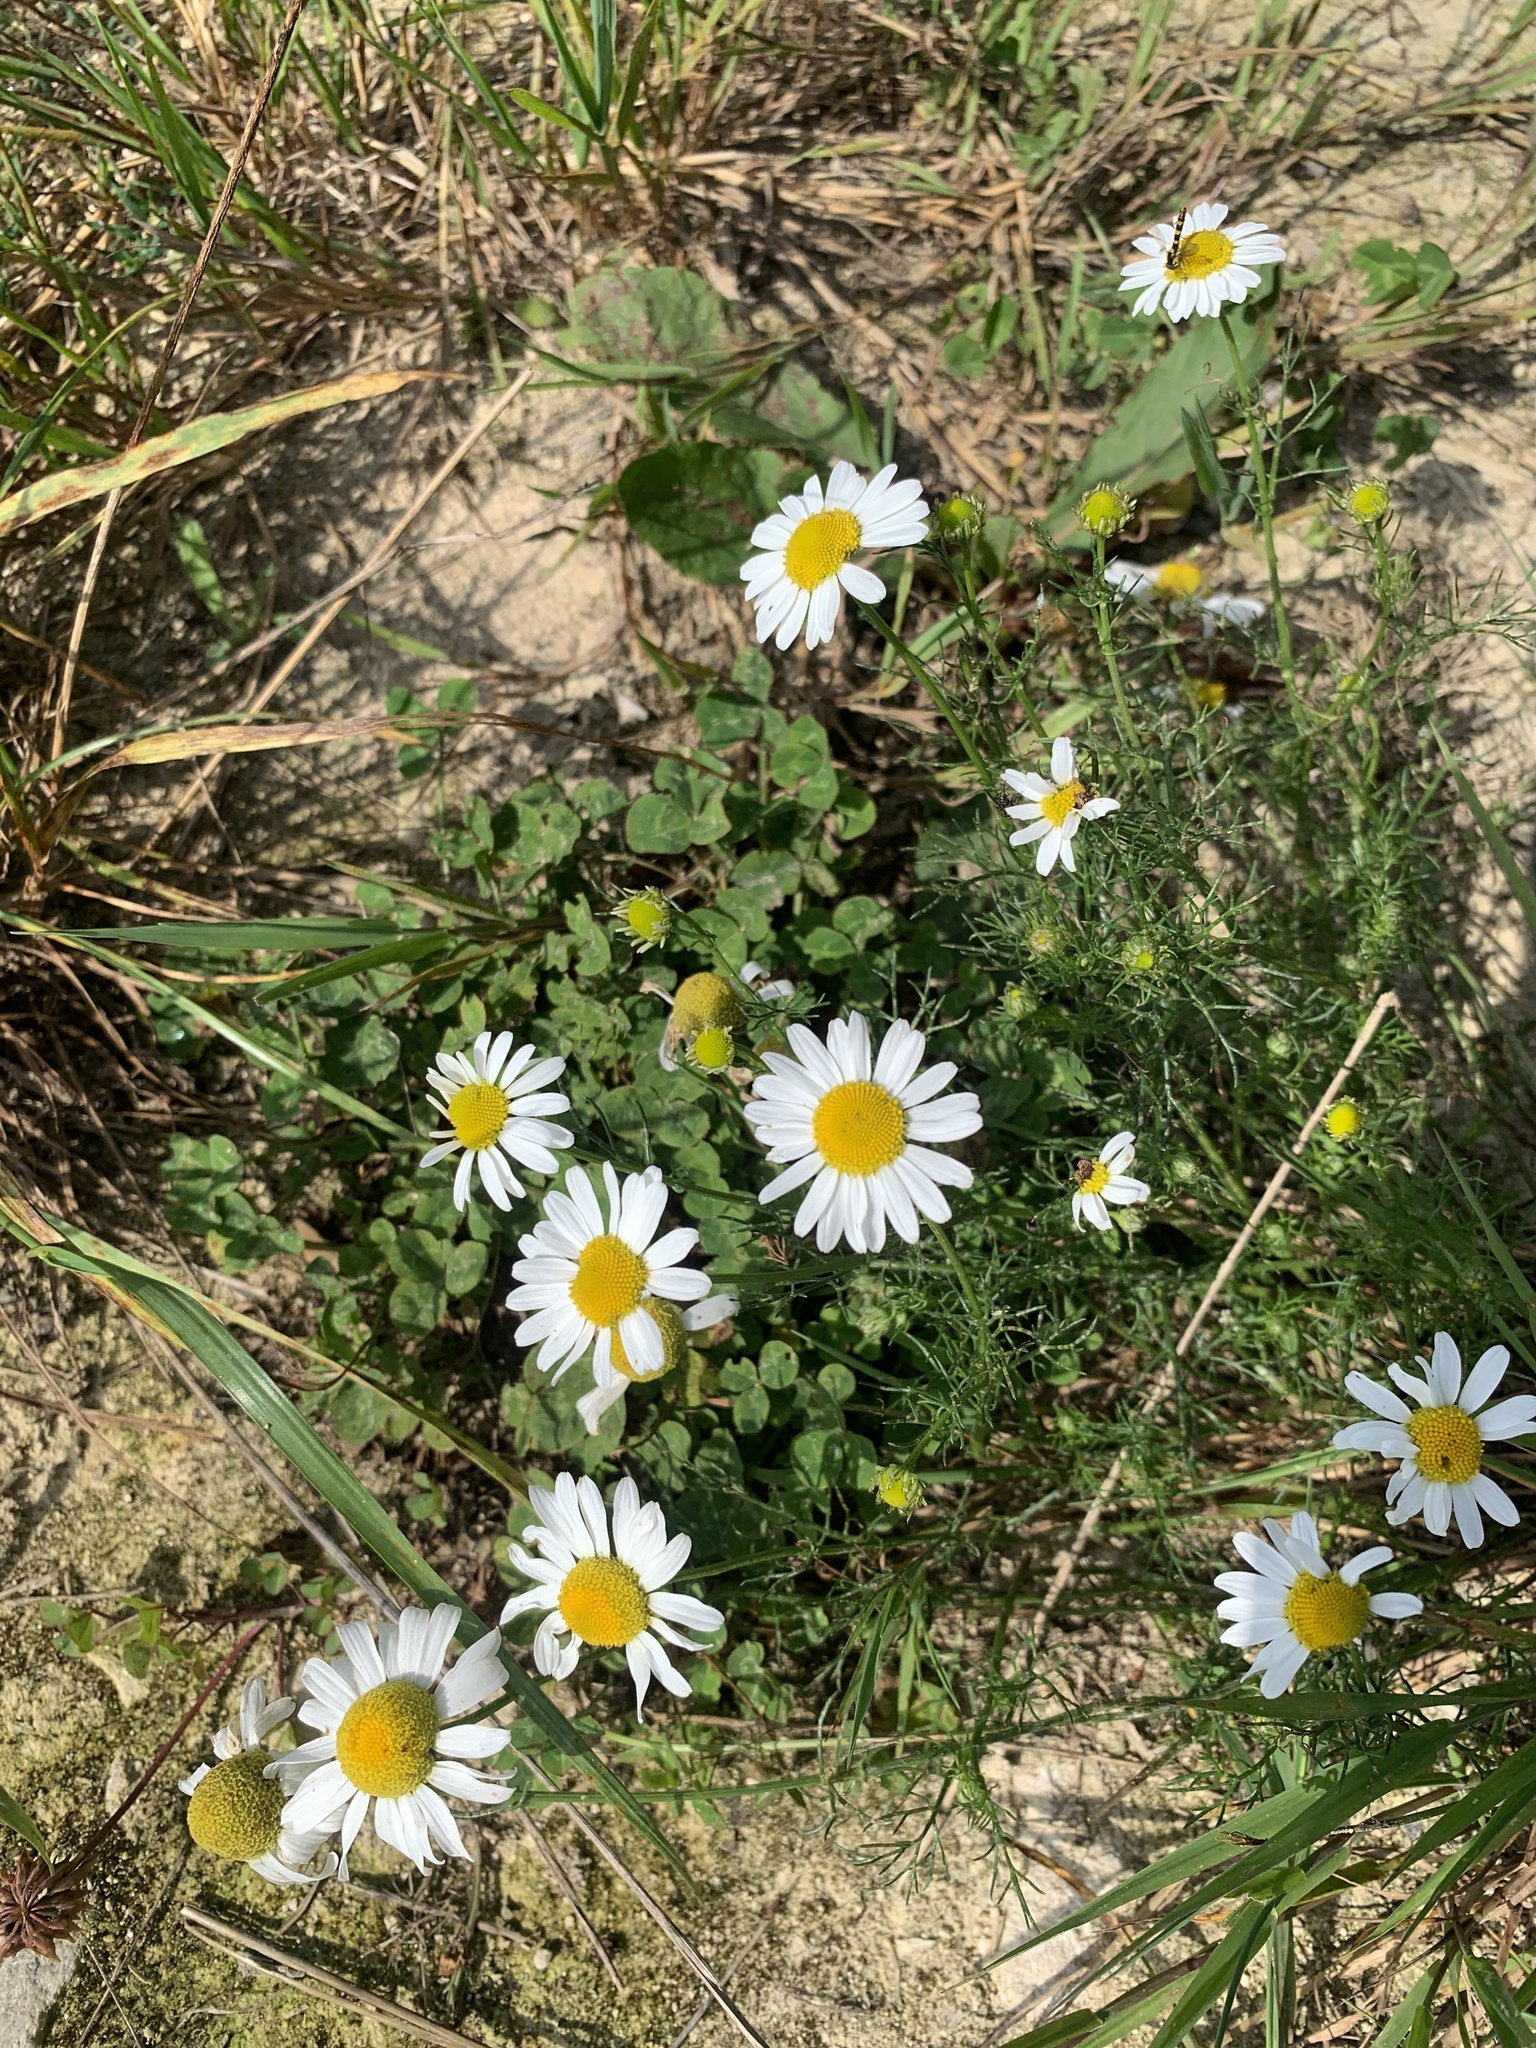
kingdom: Plantae
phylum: Tracheophyta
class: Magnoliopsida
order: Asterales
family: Asteraceae
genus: Tripleurospermum
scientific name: Tripleurospermum inodorum
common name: Scentless mayweed
